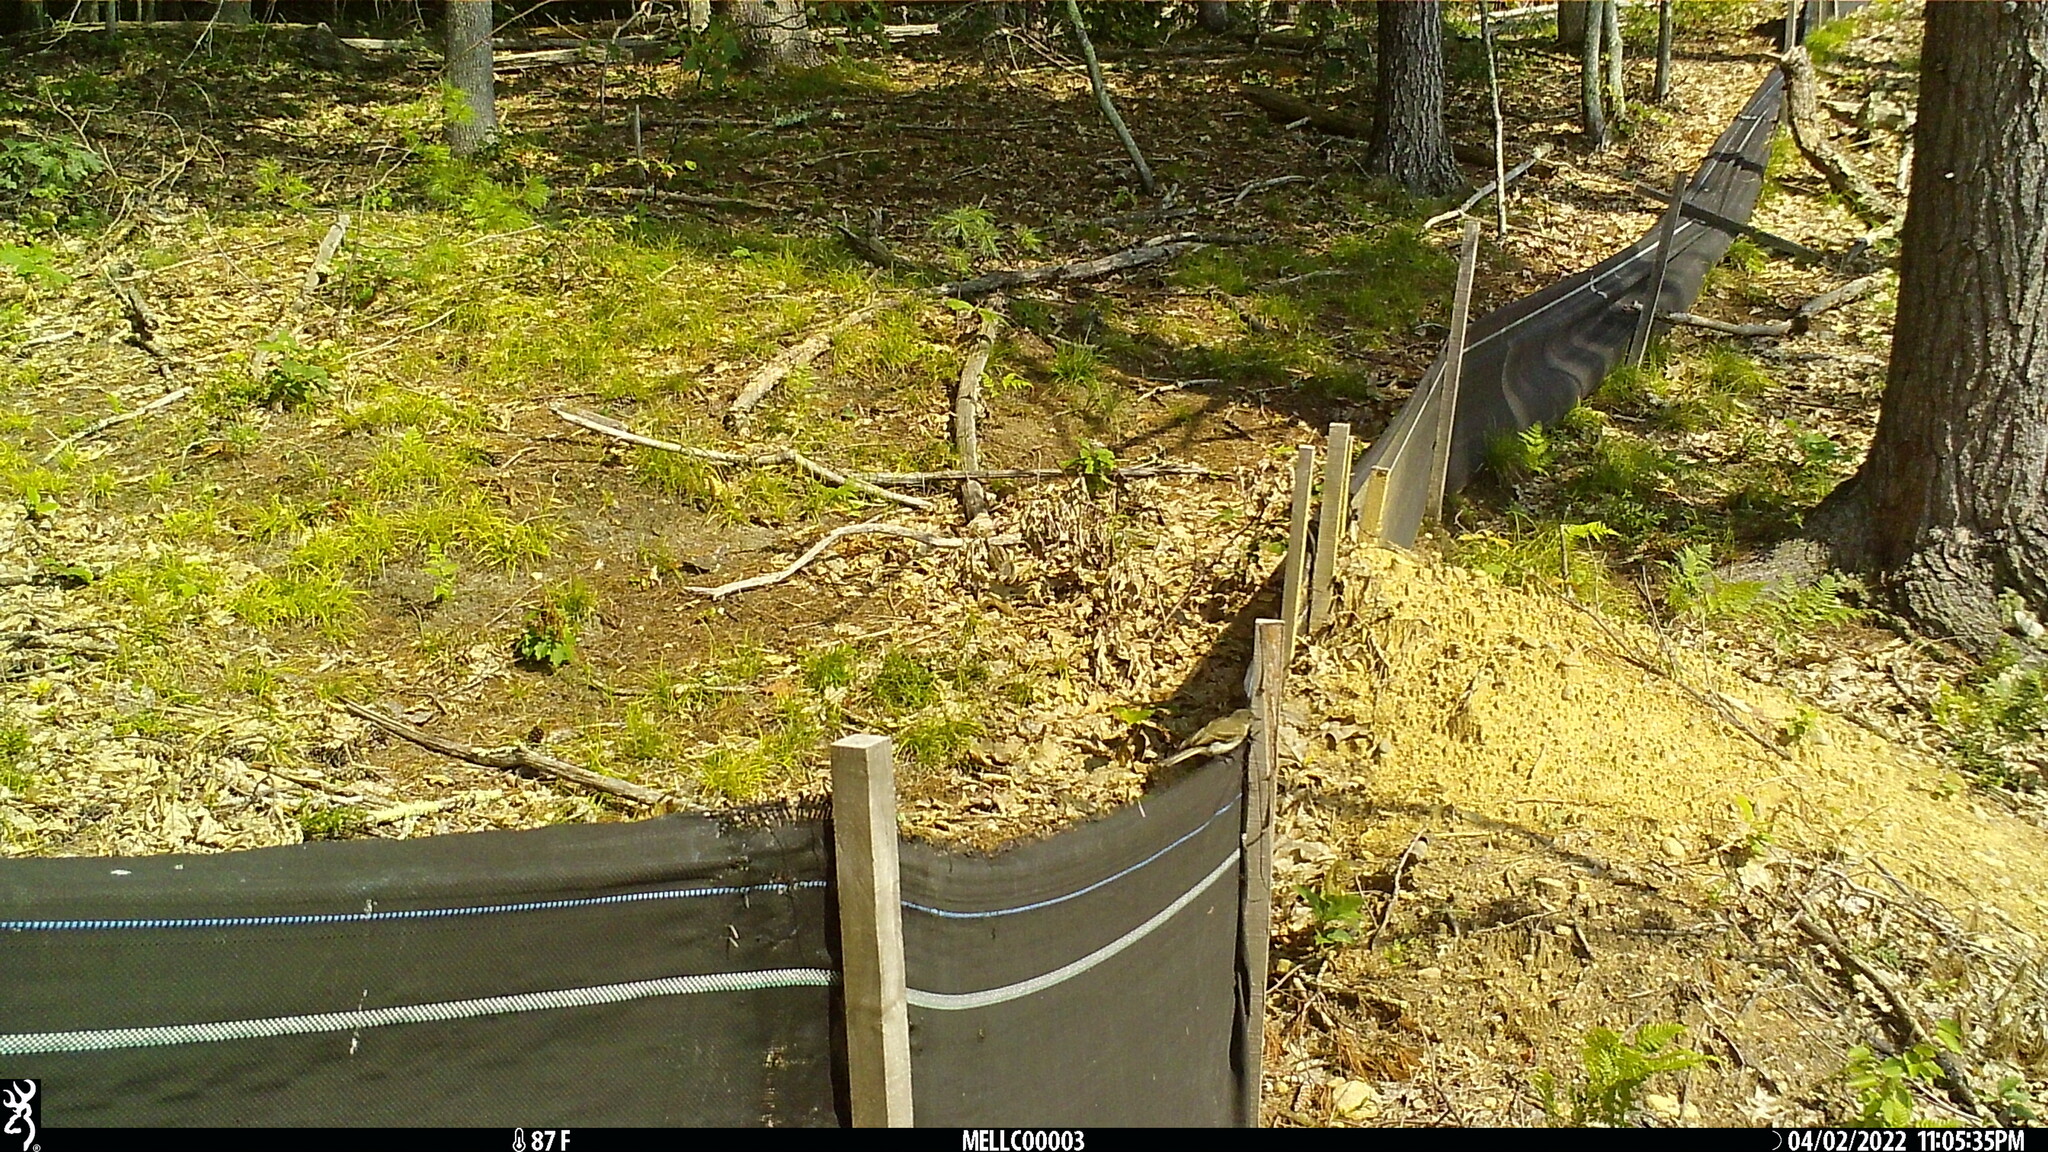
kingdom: Animalia
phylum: Chordata
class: Aves
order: Passeriformes
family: Tyrannidae
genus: Sayornis
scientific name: Sayornis phoebe
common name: Eastern phoebe
